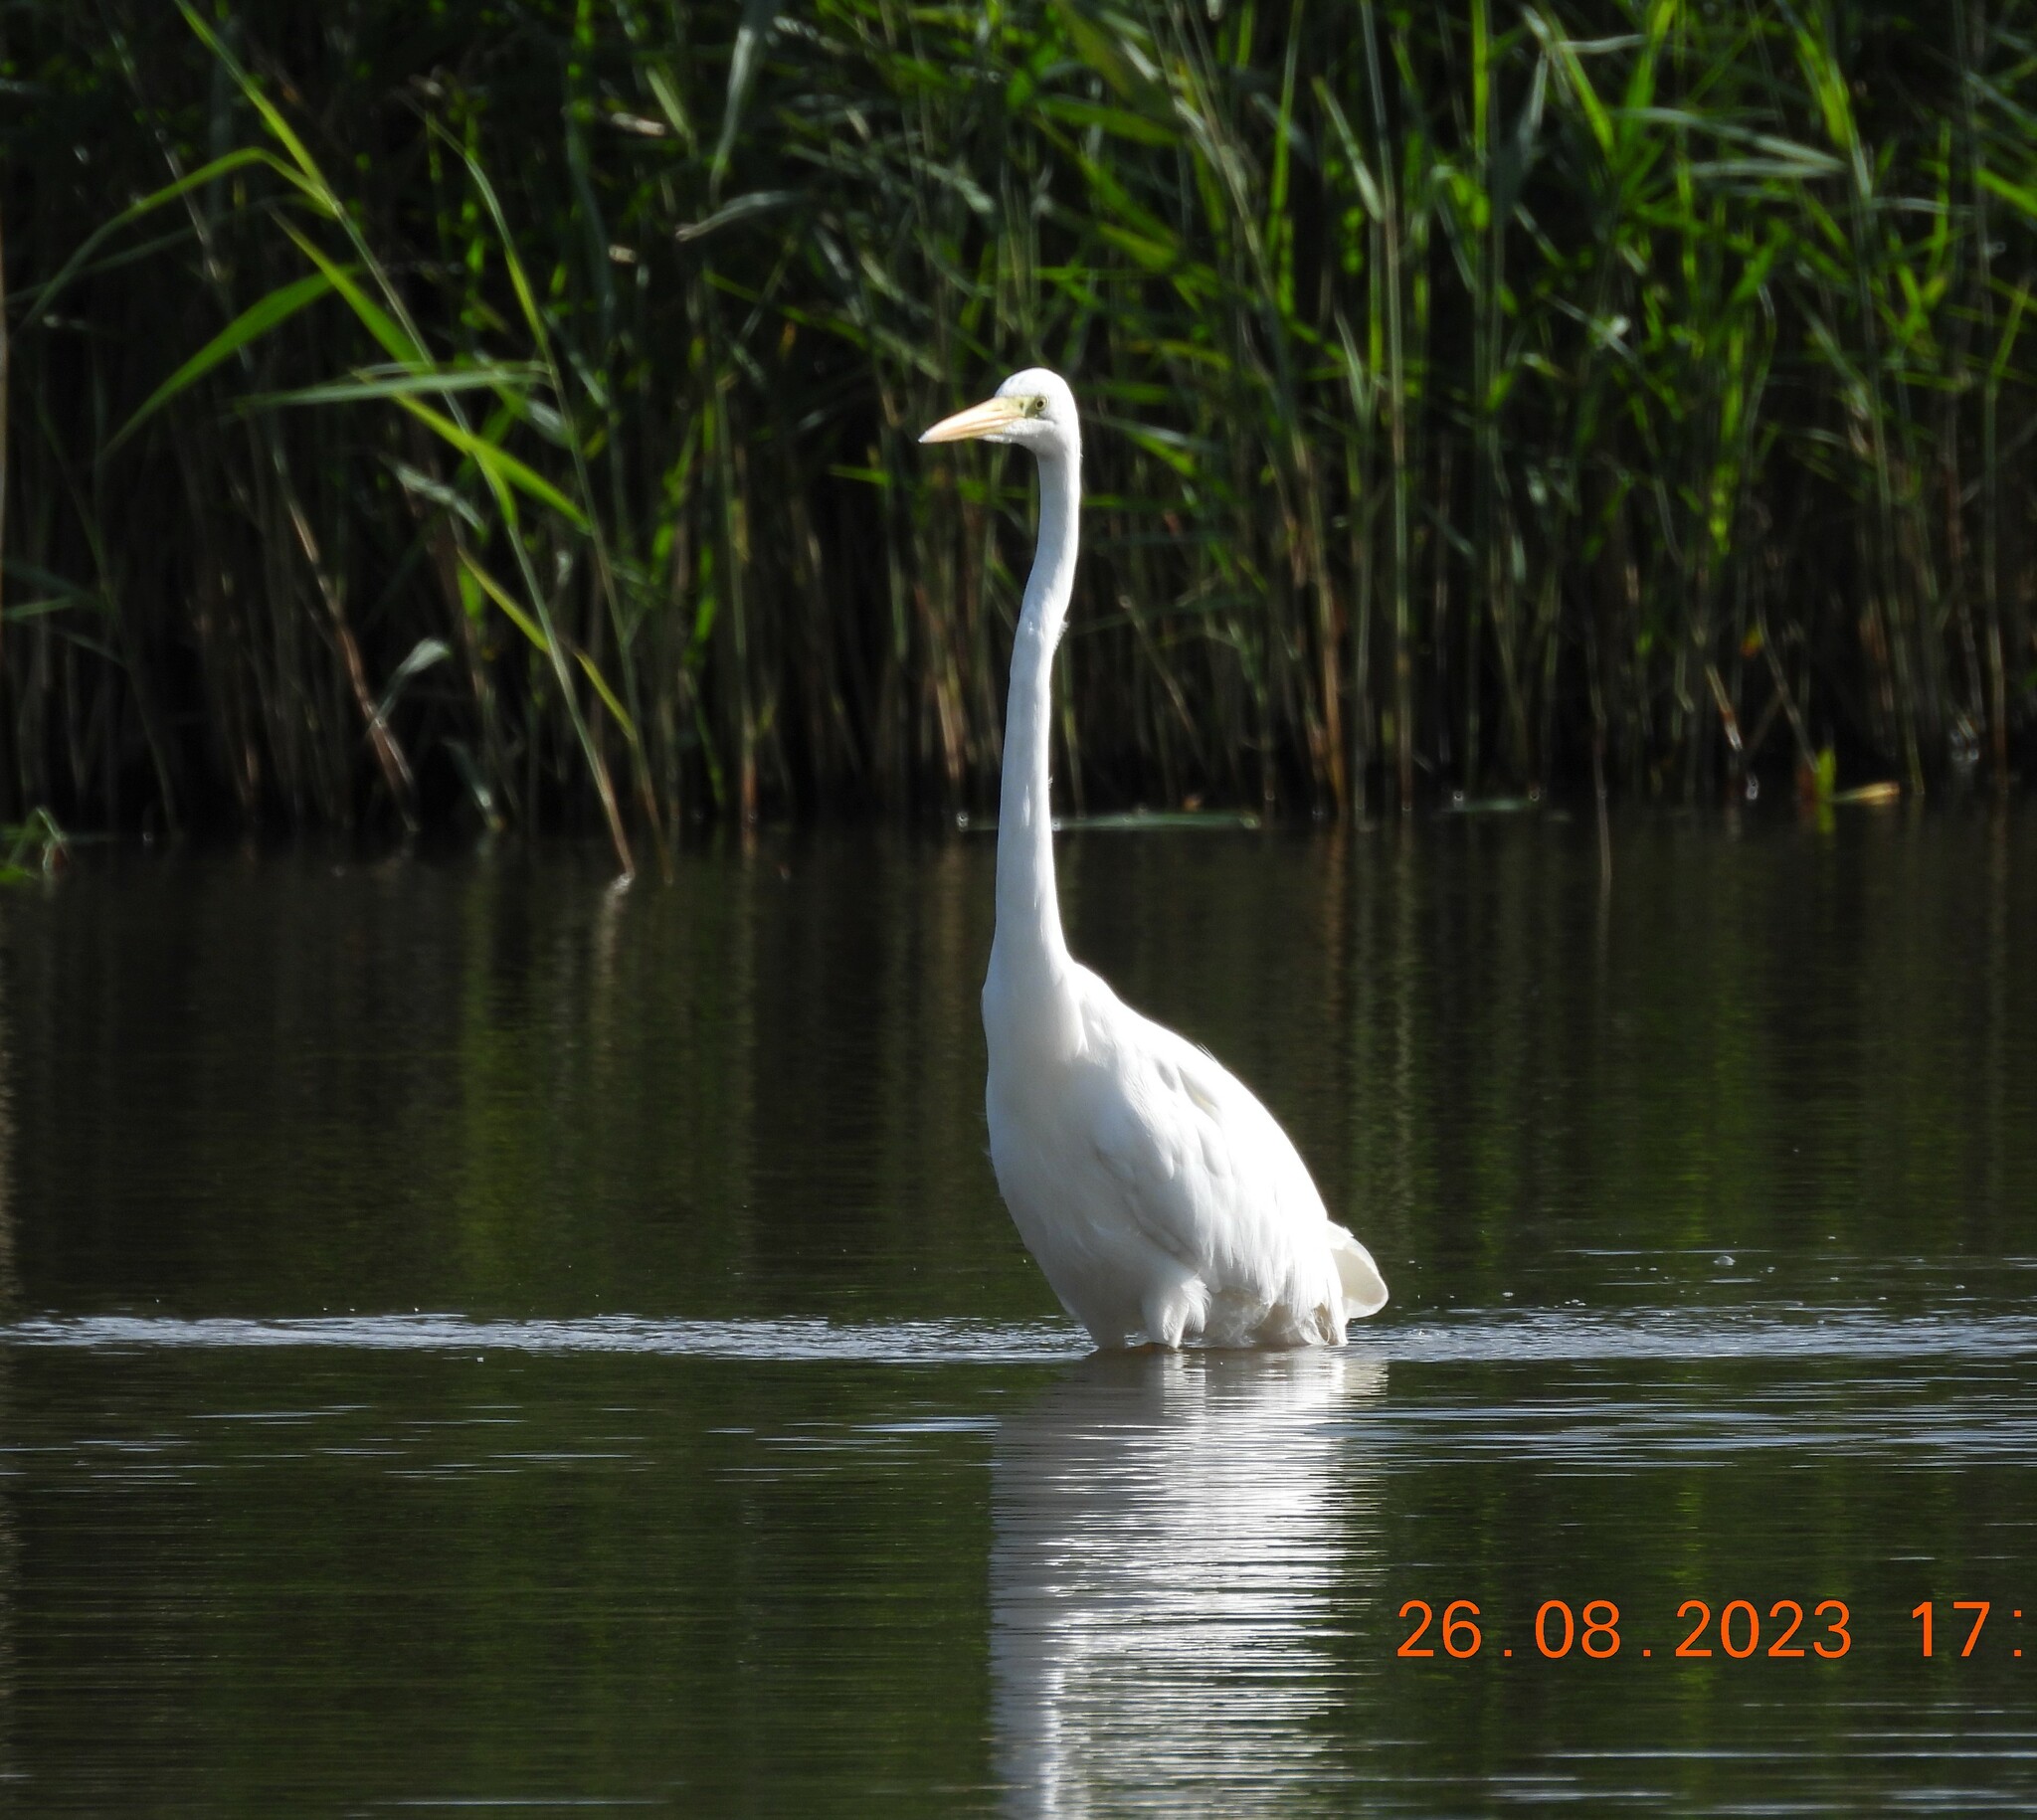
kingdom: Animalia
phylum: Chordata
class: Aves
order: Pelecaniformes
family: Ardeidae
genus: Ardea
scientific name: Ardea alba
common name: Great egret
